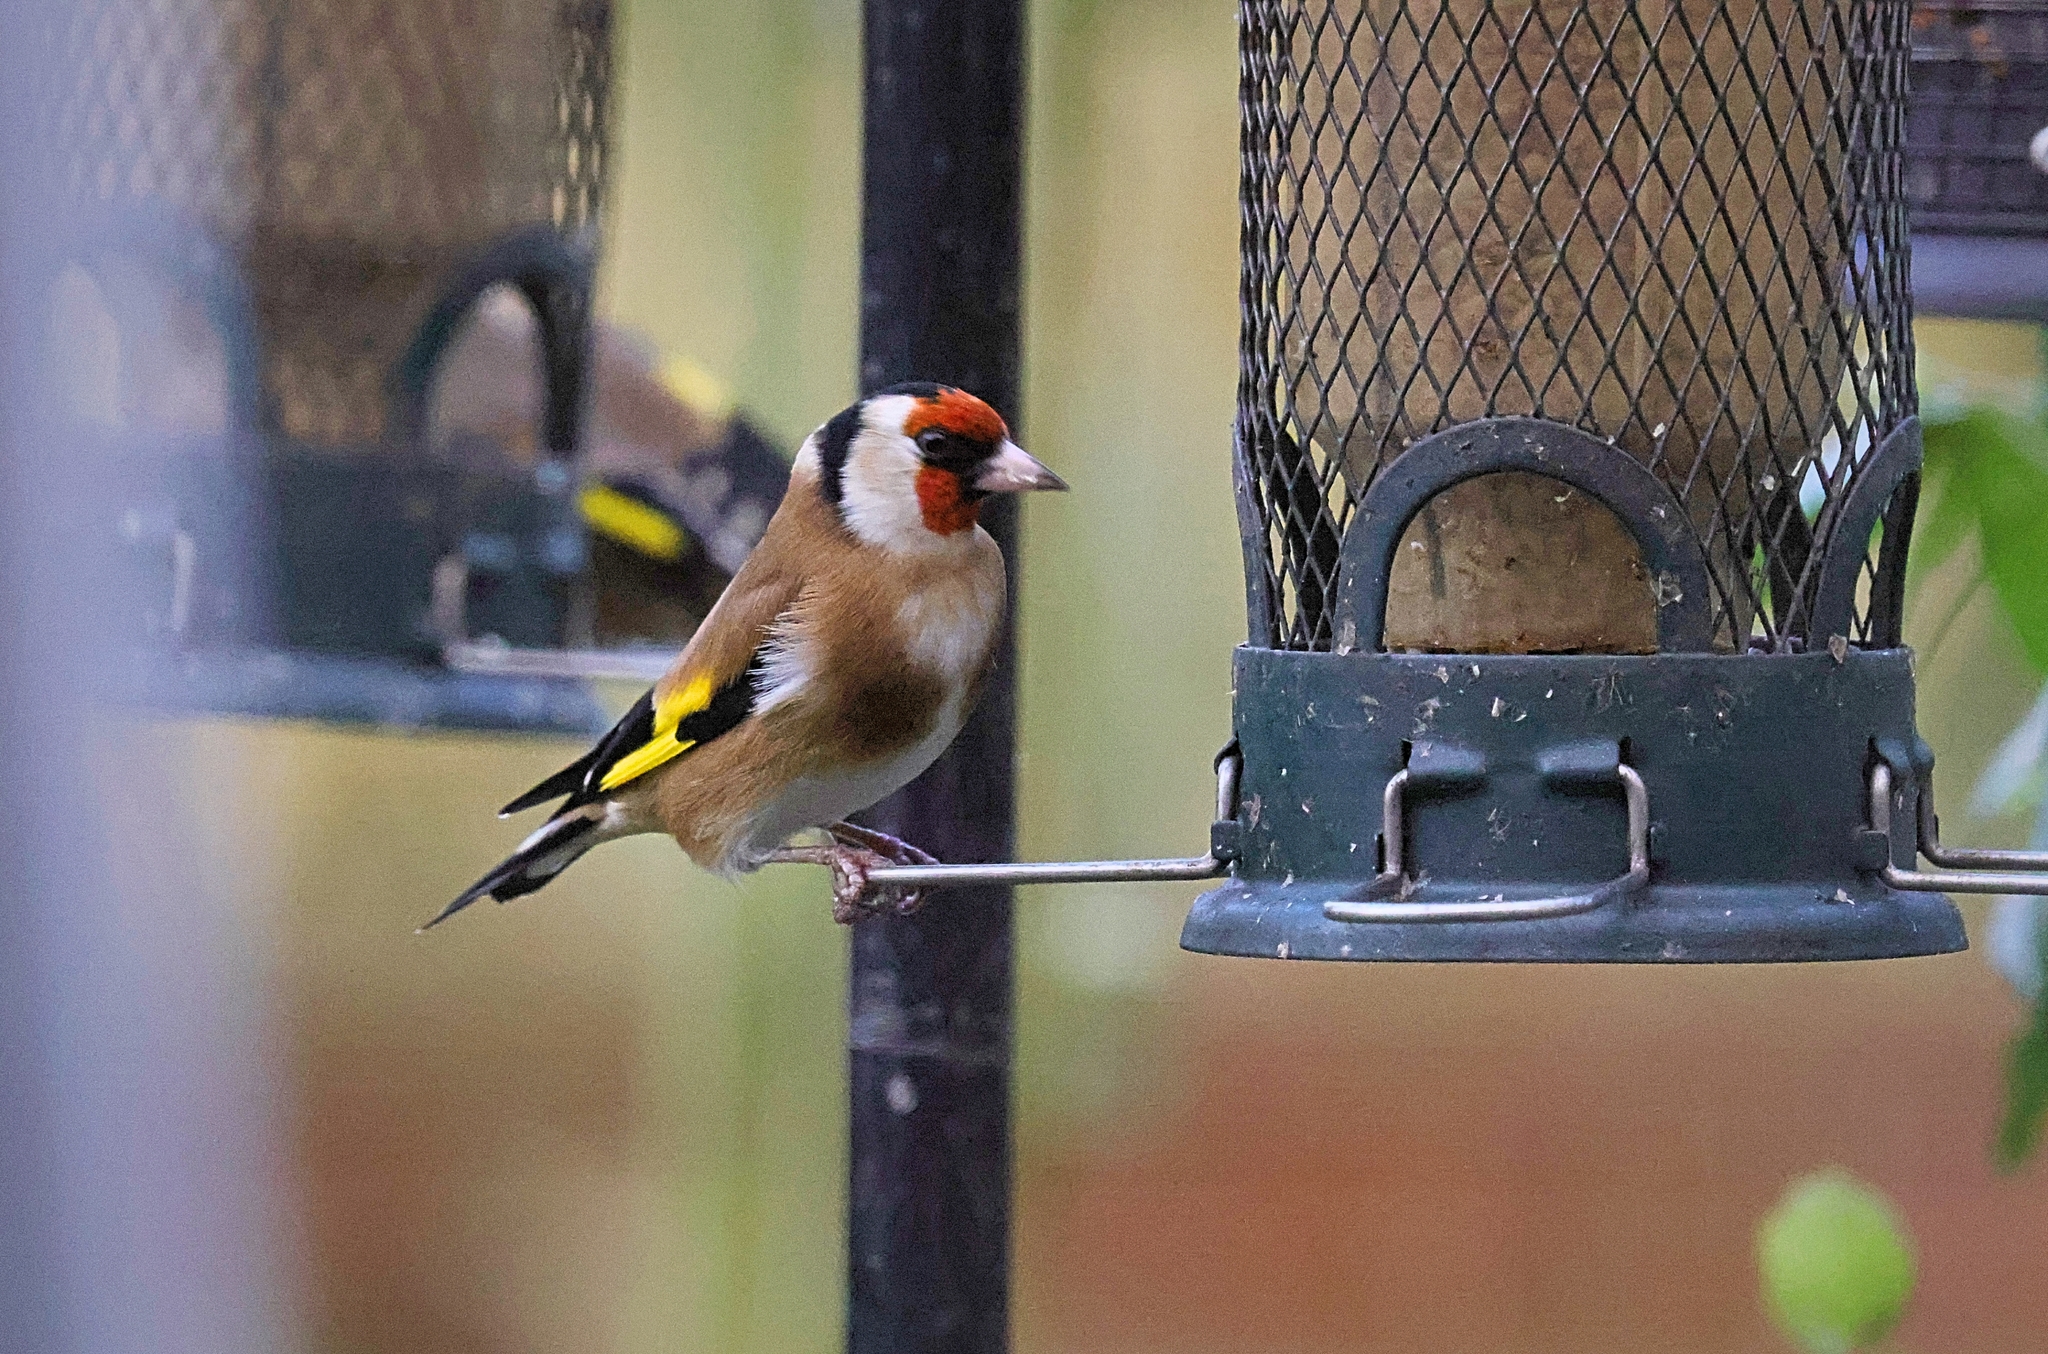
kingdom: Animalia
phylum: Chordata
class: Aves
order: Passeriformes
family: Fringillidae
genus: Carduelis
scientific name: Carduelis carduelis
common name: European goldfinch
